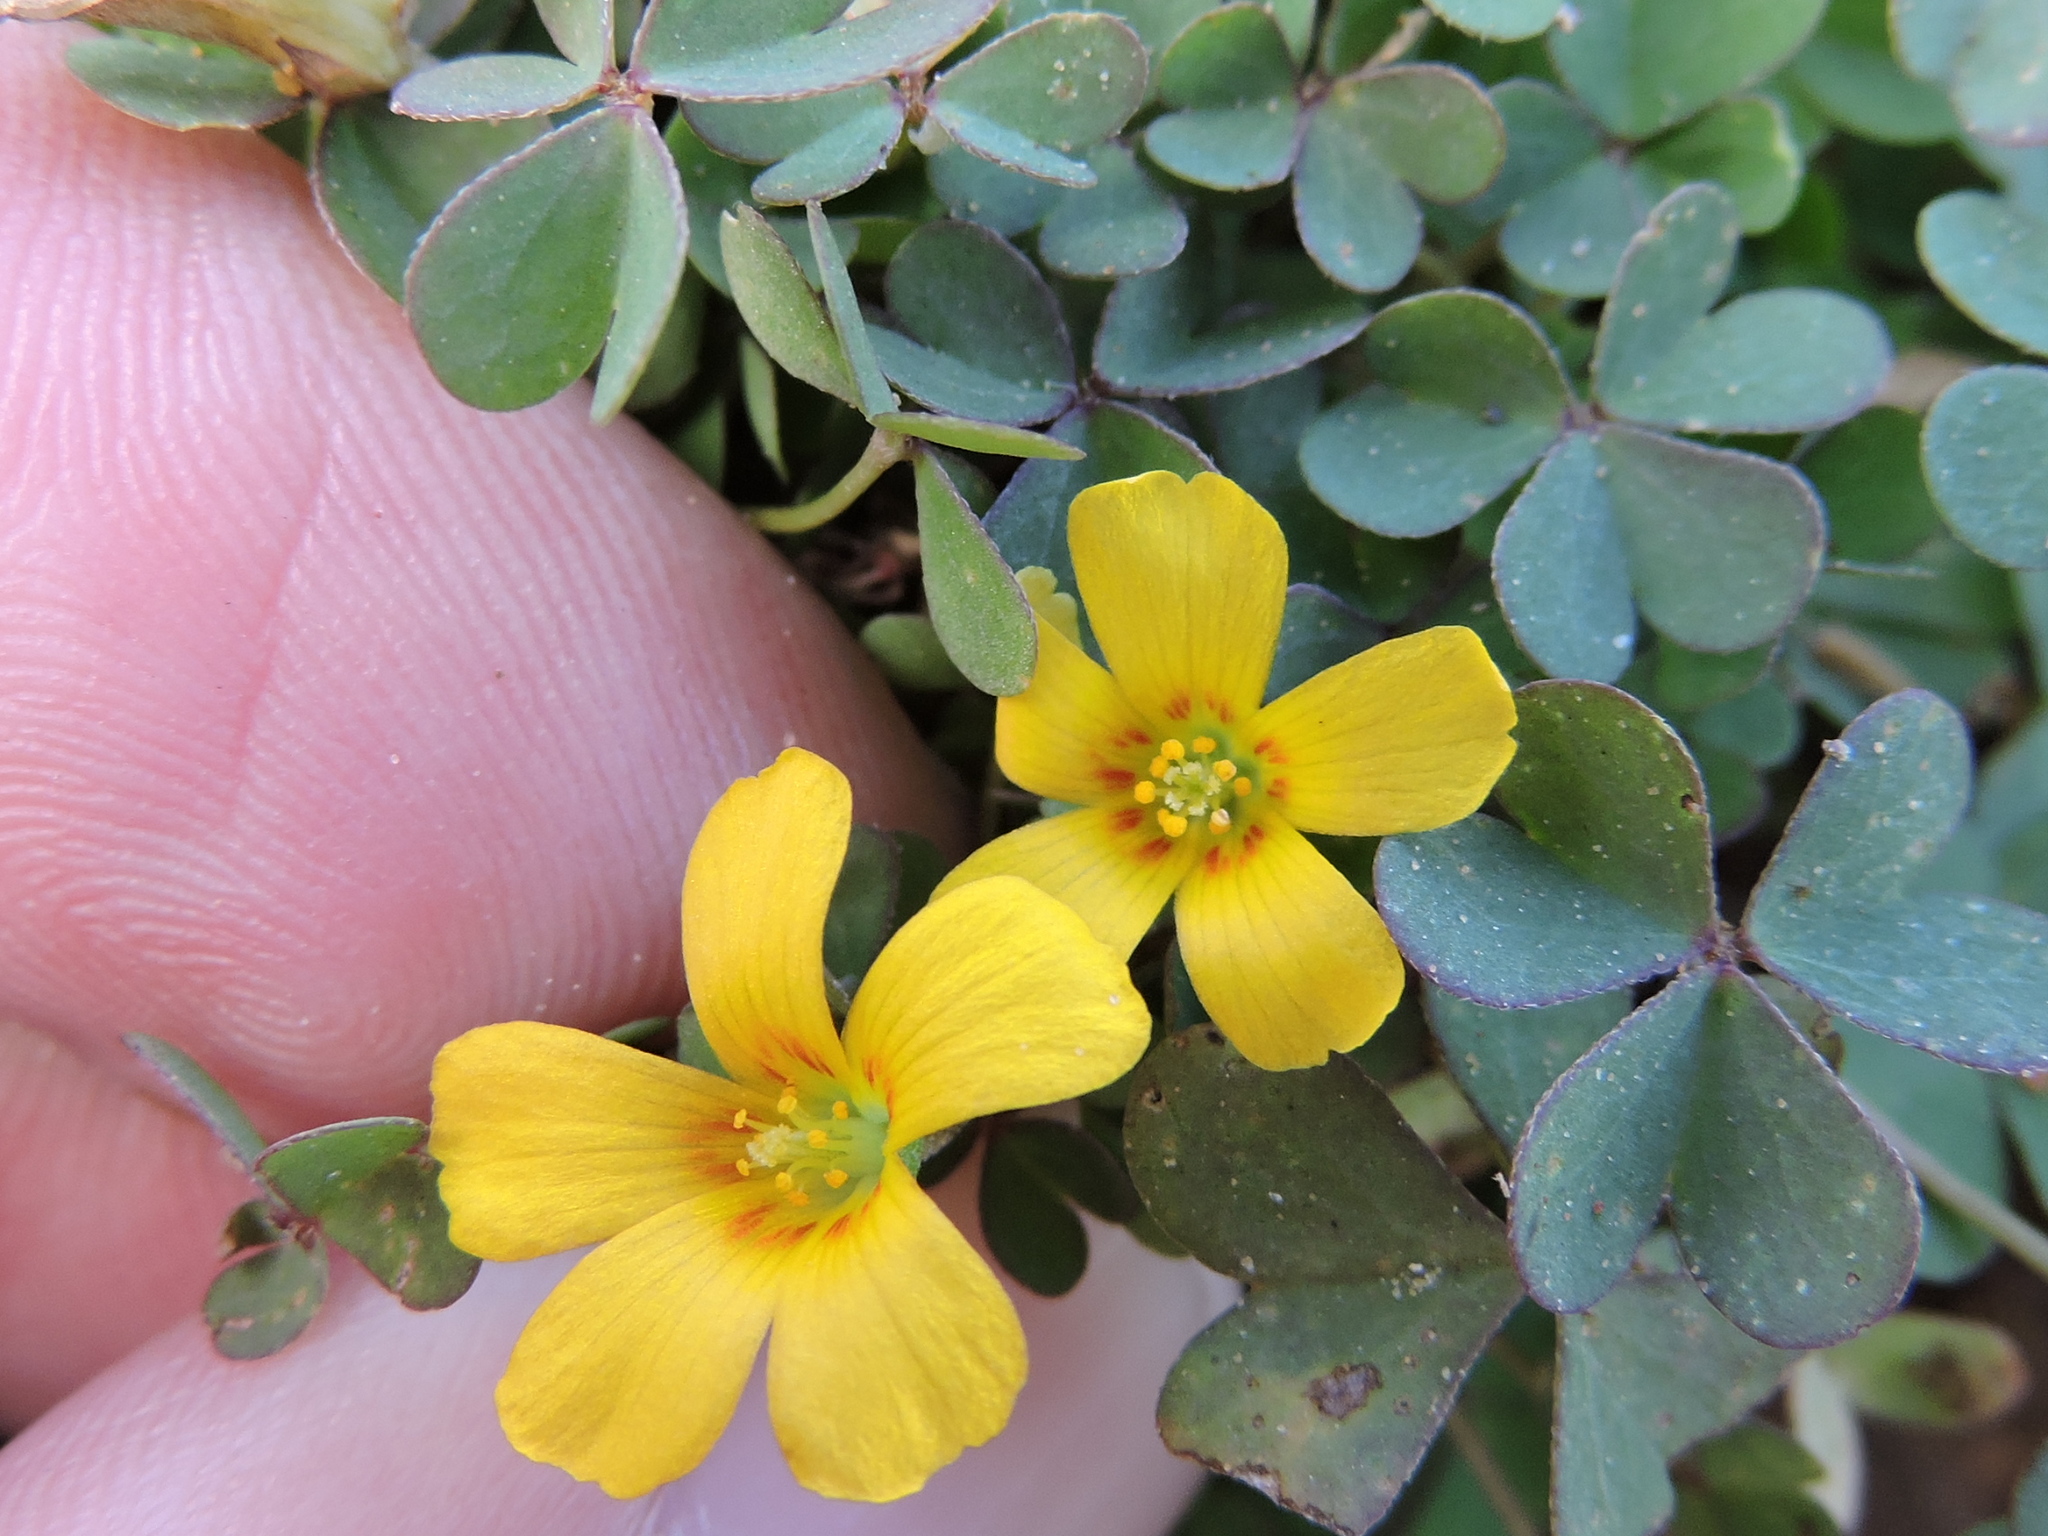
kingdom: Plantae
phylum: Tracheophyta
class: Magnoliopsida
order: Oxalidales
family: Oxalidaceae
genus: Oxalis
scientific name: Oxalis corniculata
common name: Procumbent yellow-sorrel
